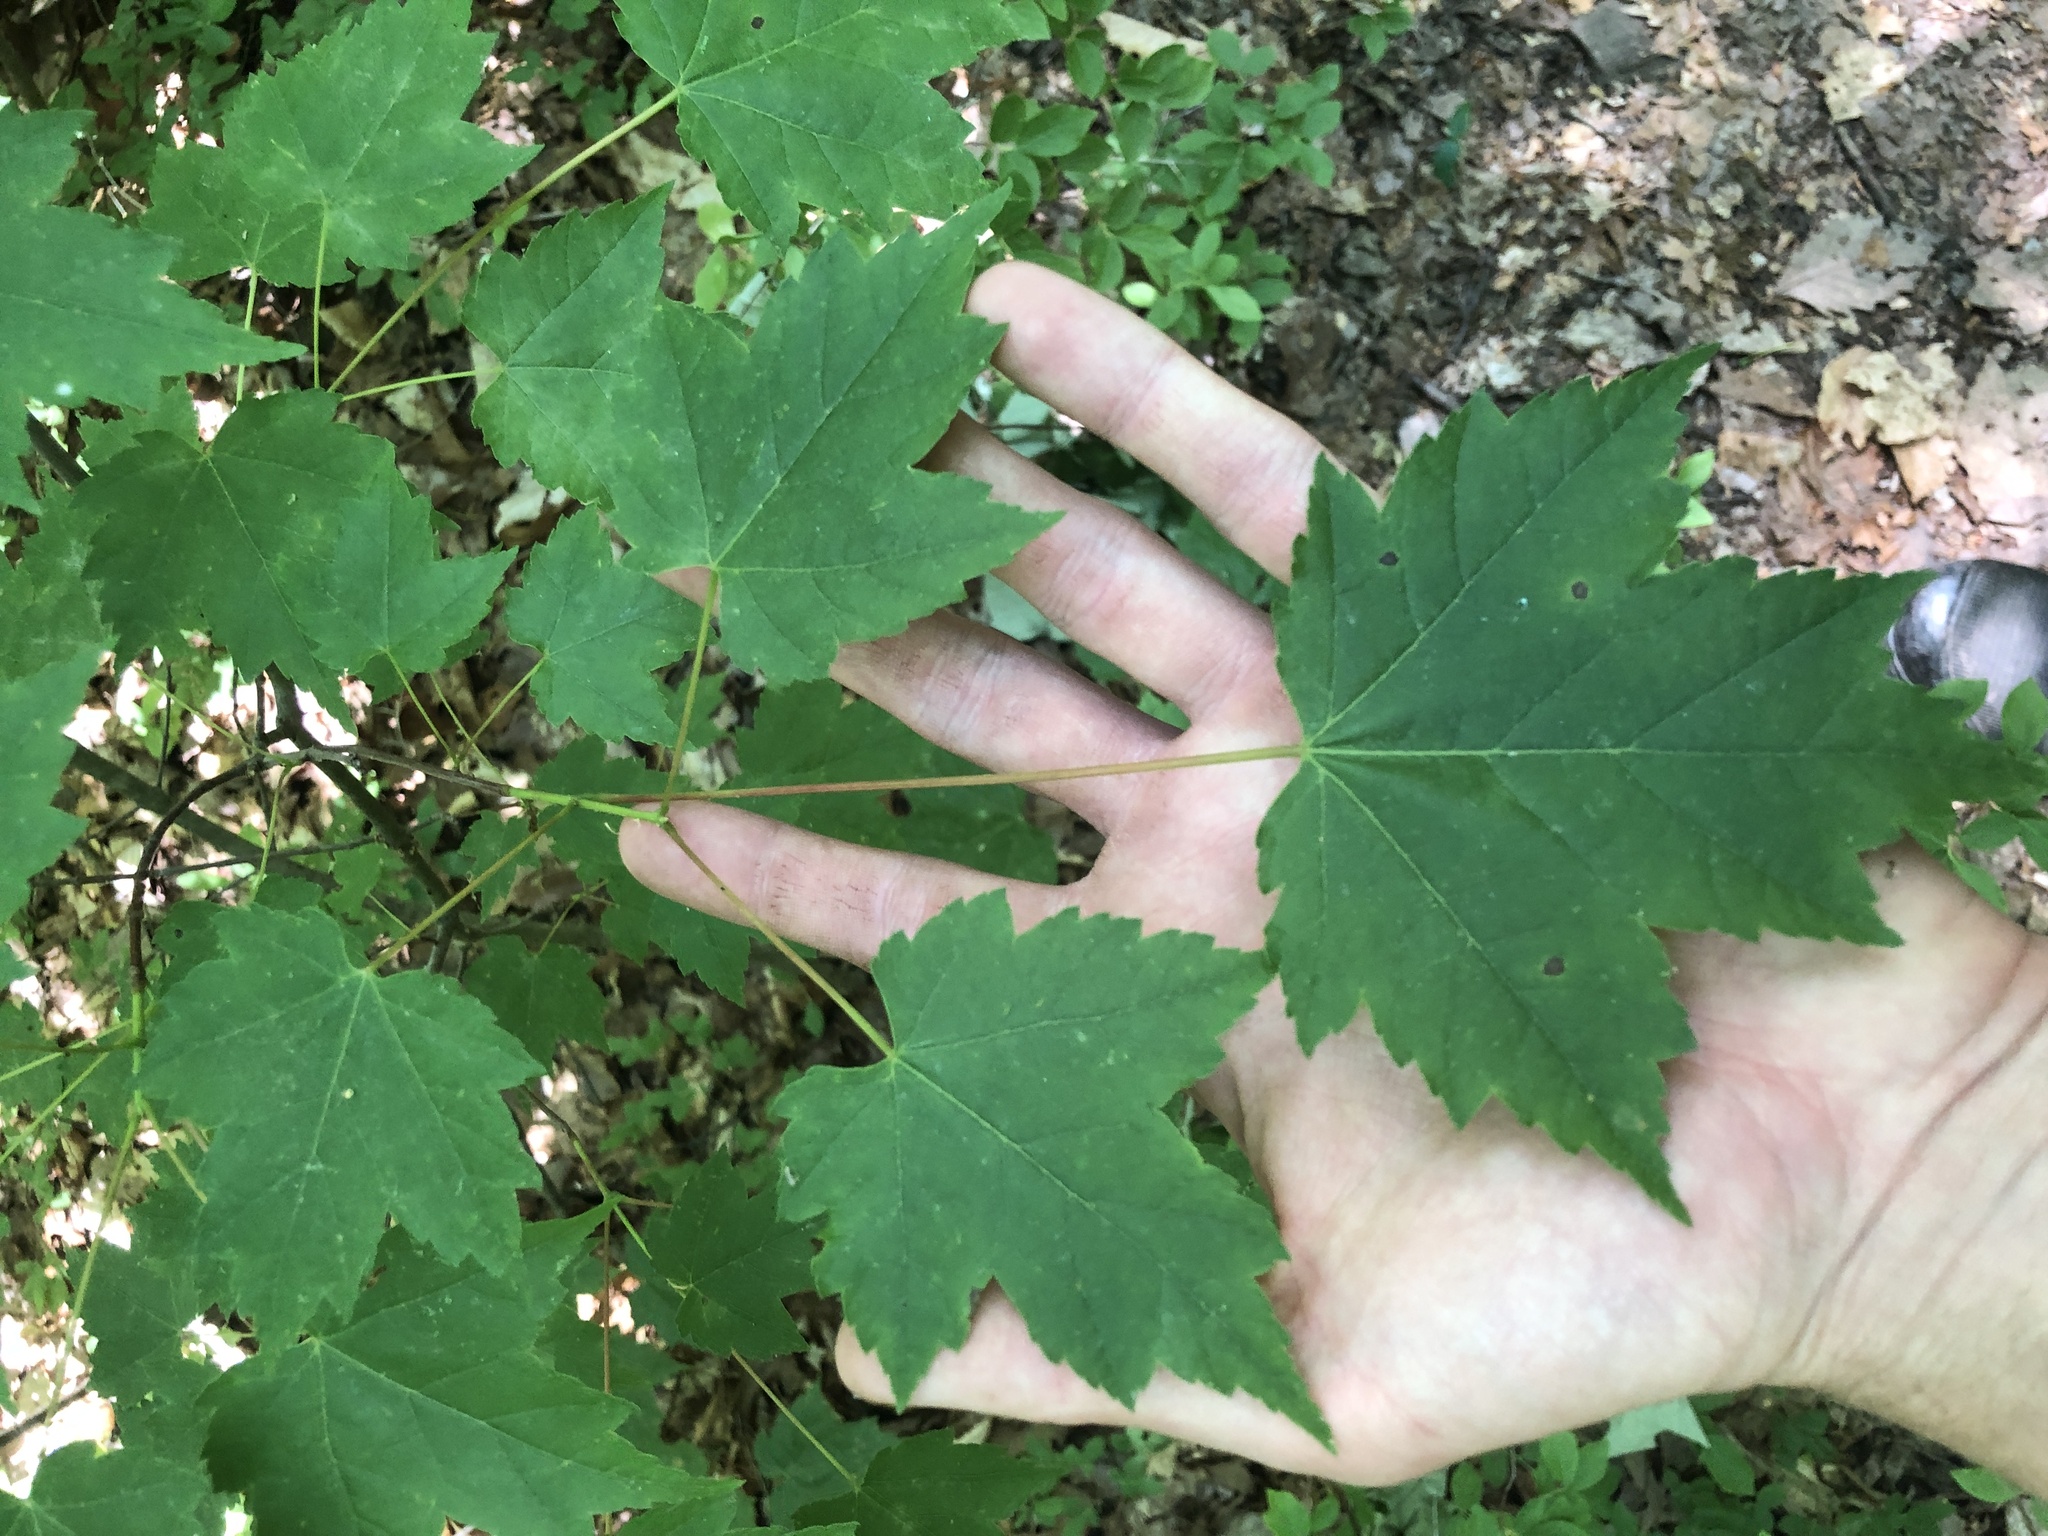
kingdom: Plantae
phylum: Tracheophyta
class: Magnoliopsida
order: Sapindales
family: Sapindaceae
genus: Acer
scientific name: Acer rubrum
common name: Red maple
